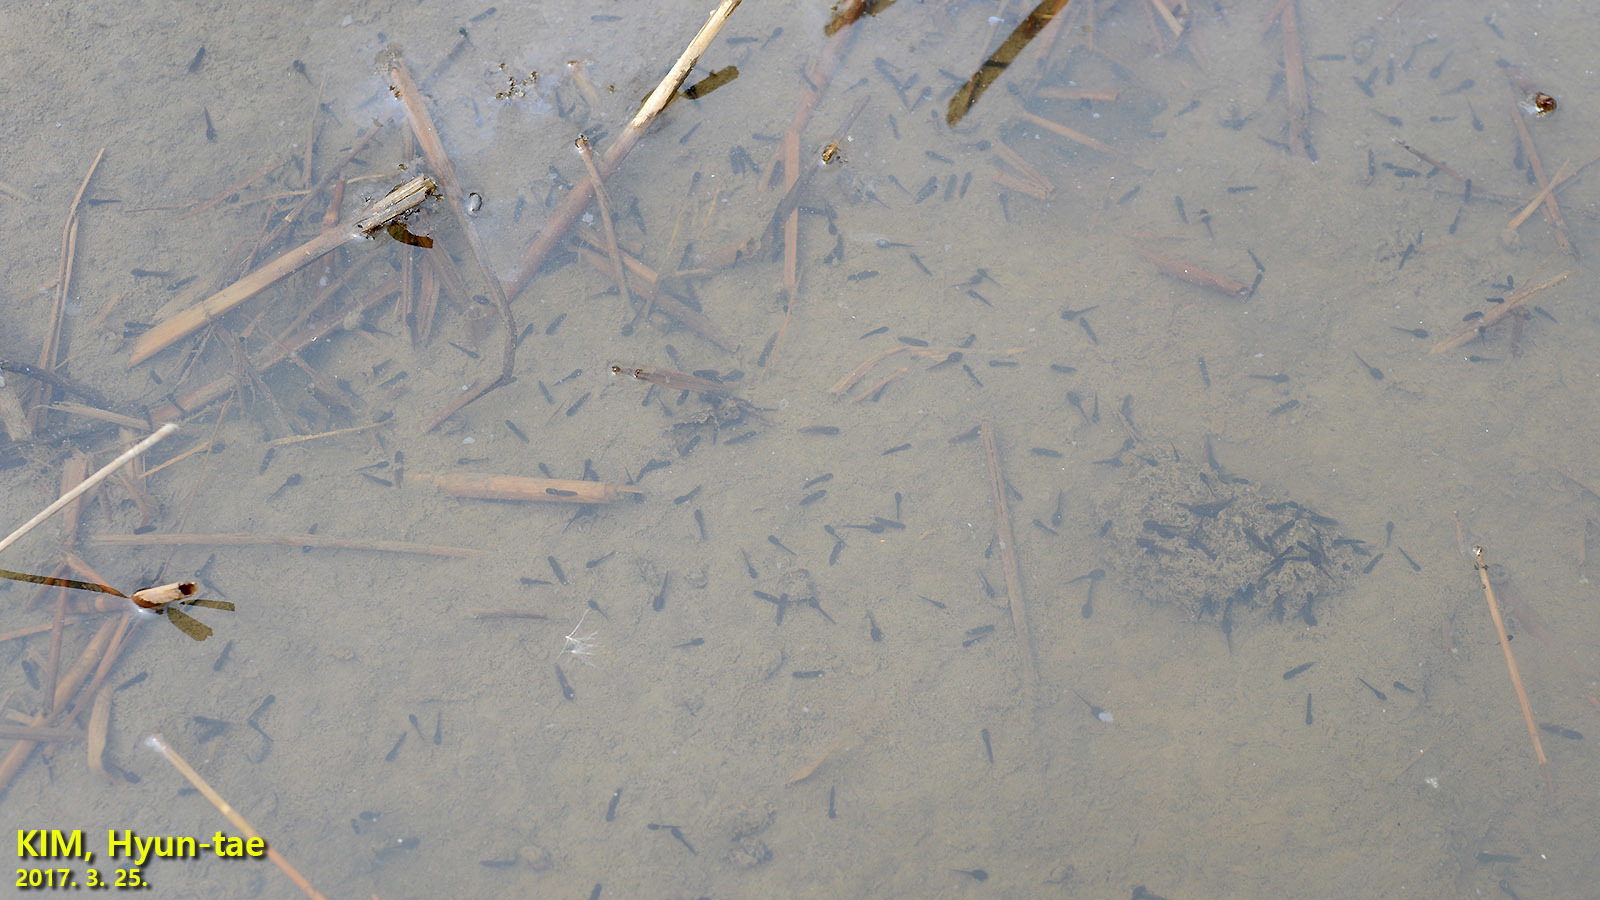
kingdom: Animalia
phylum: Chordata
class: Amphibia
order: Anura
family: Ranidae
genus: Rana
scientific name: Rana coreana
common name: Korean brown frog
